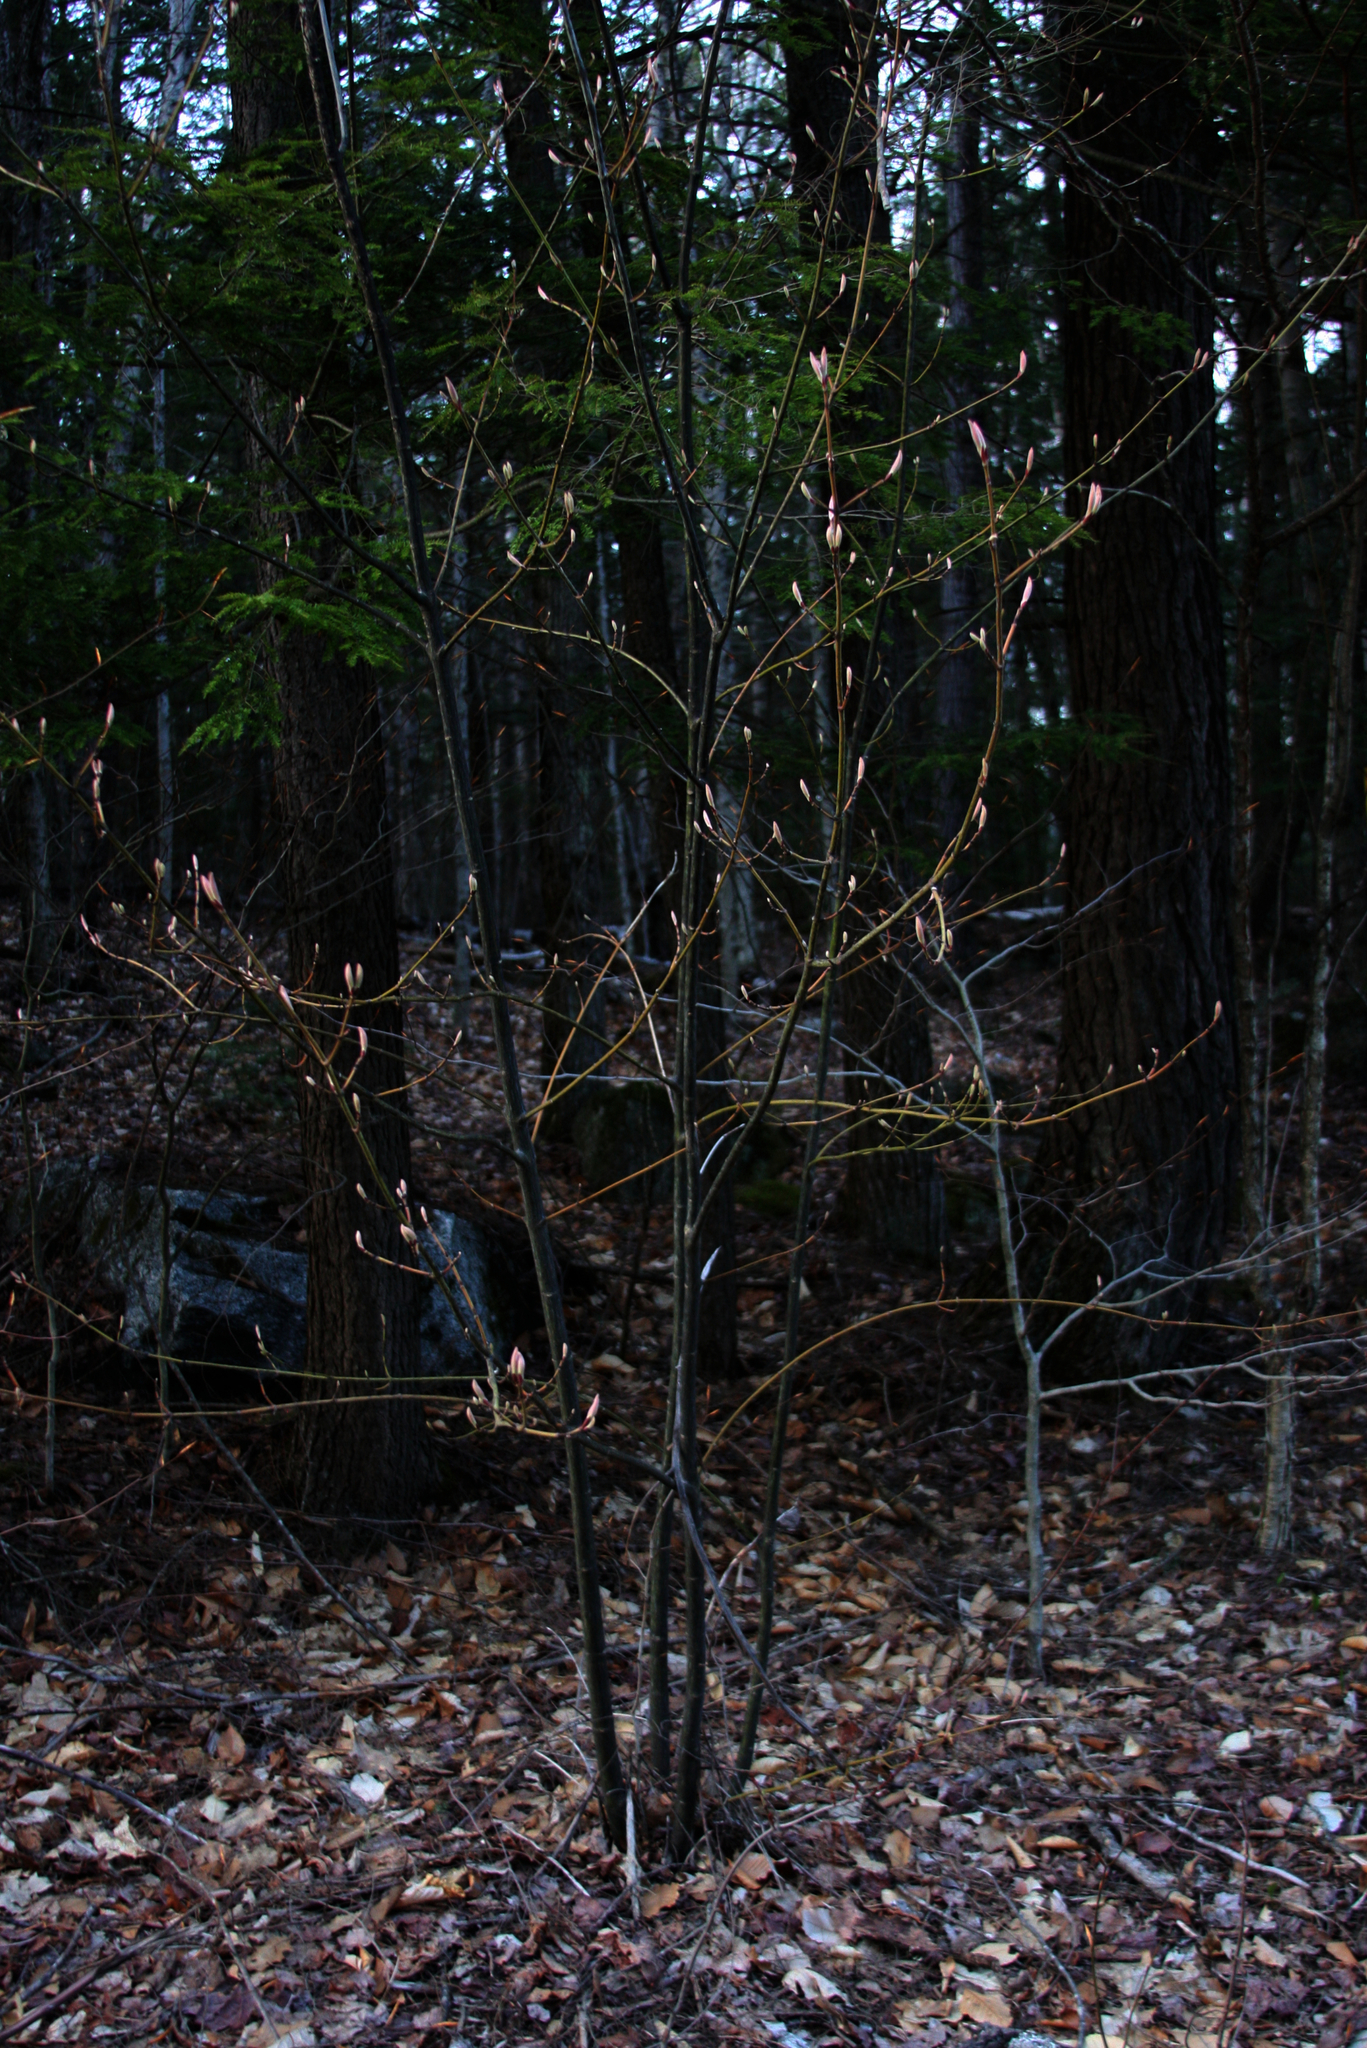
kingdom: Plantae
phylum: Tracheophyta
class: Magnoliopsida
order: Sapindales
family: Sapindaceae
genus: Acer
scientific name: Acer pensylvanicum
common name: Moosewood
